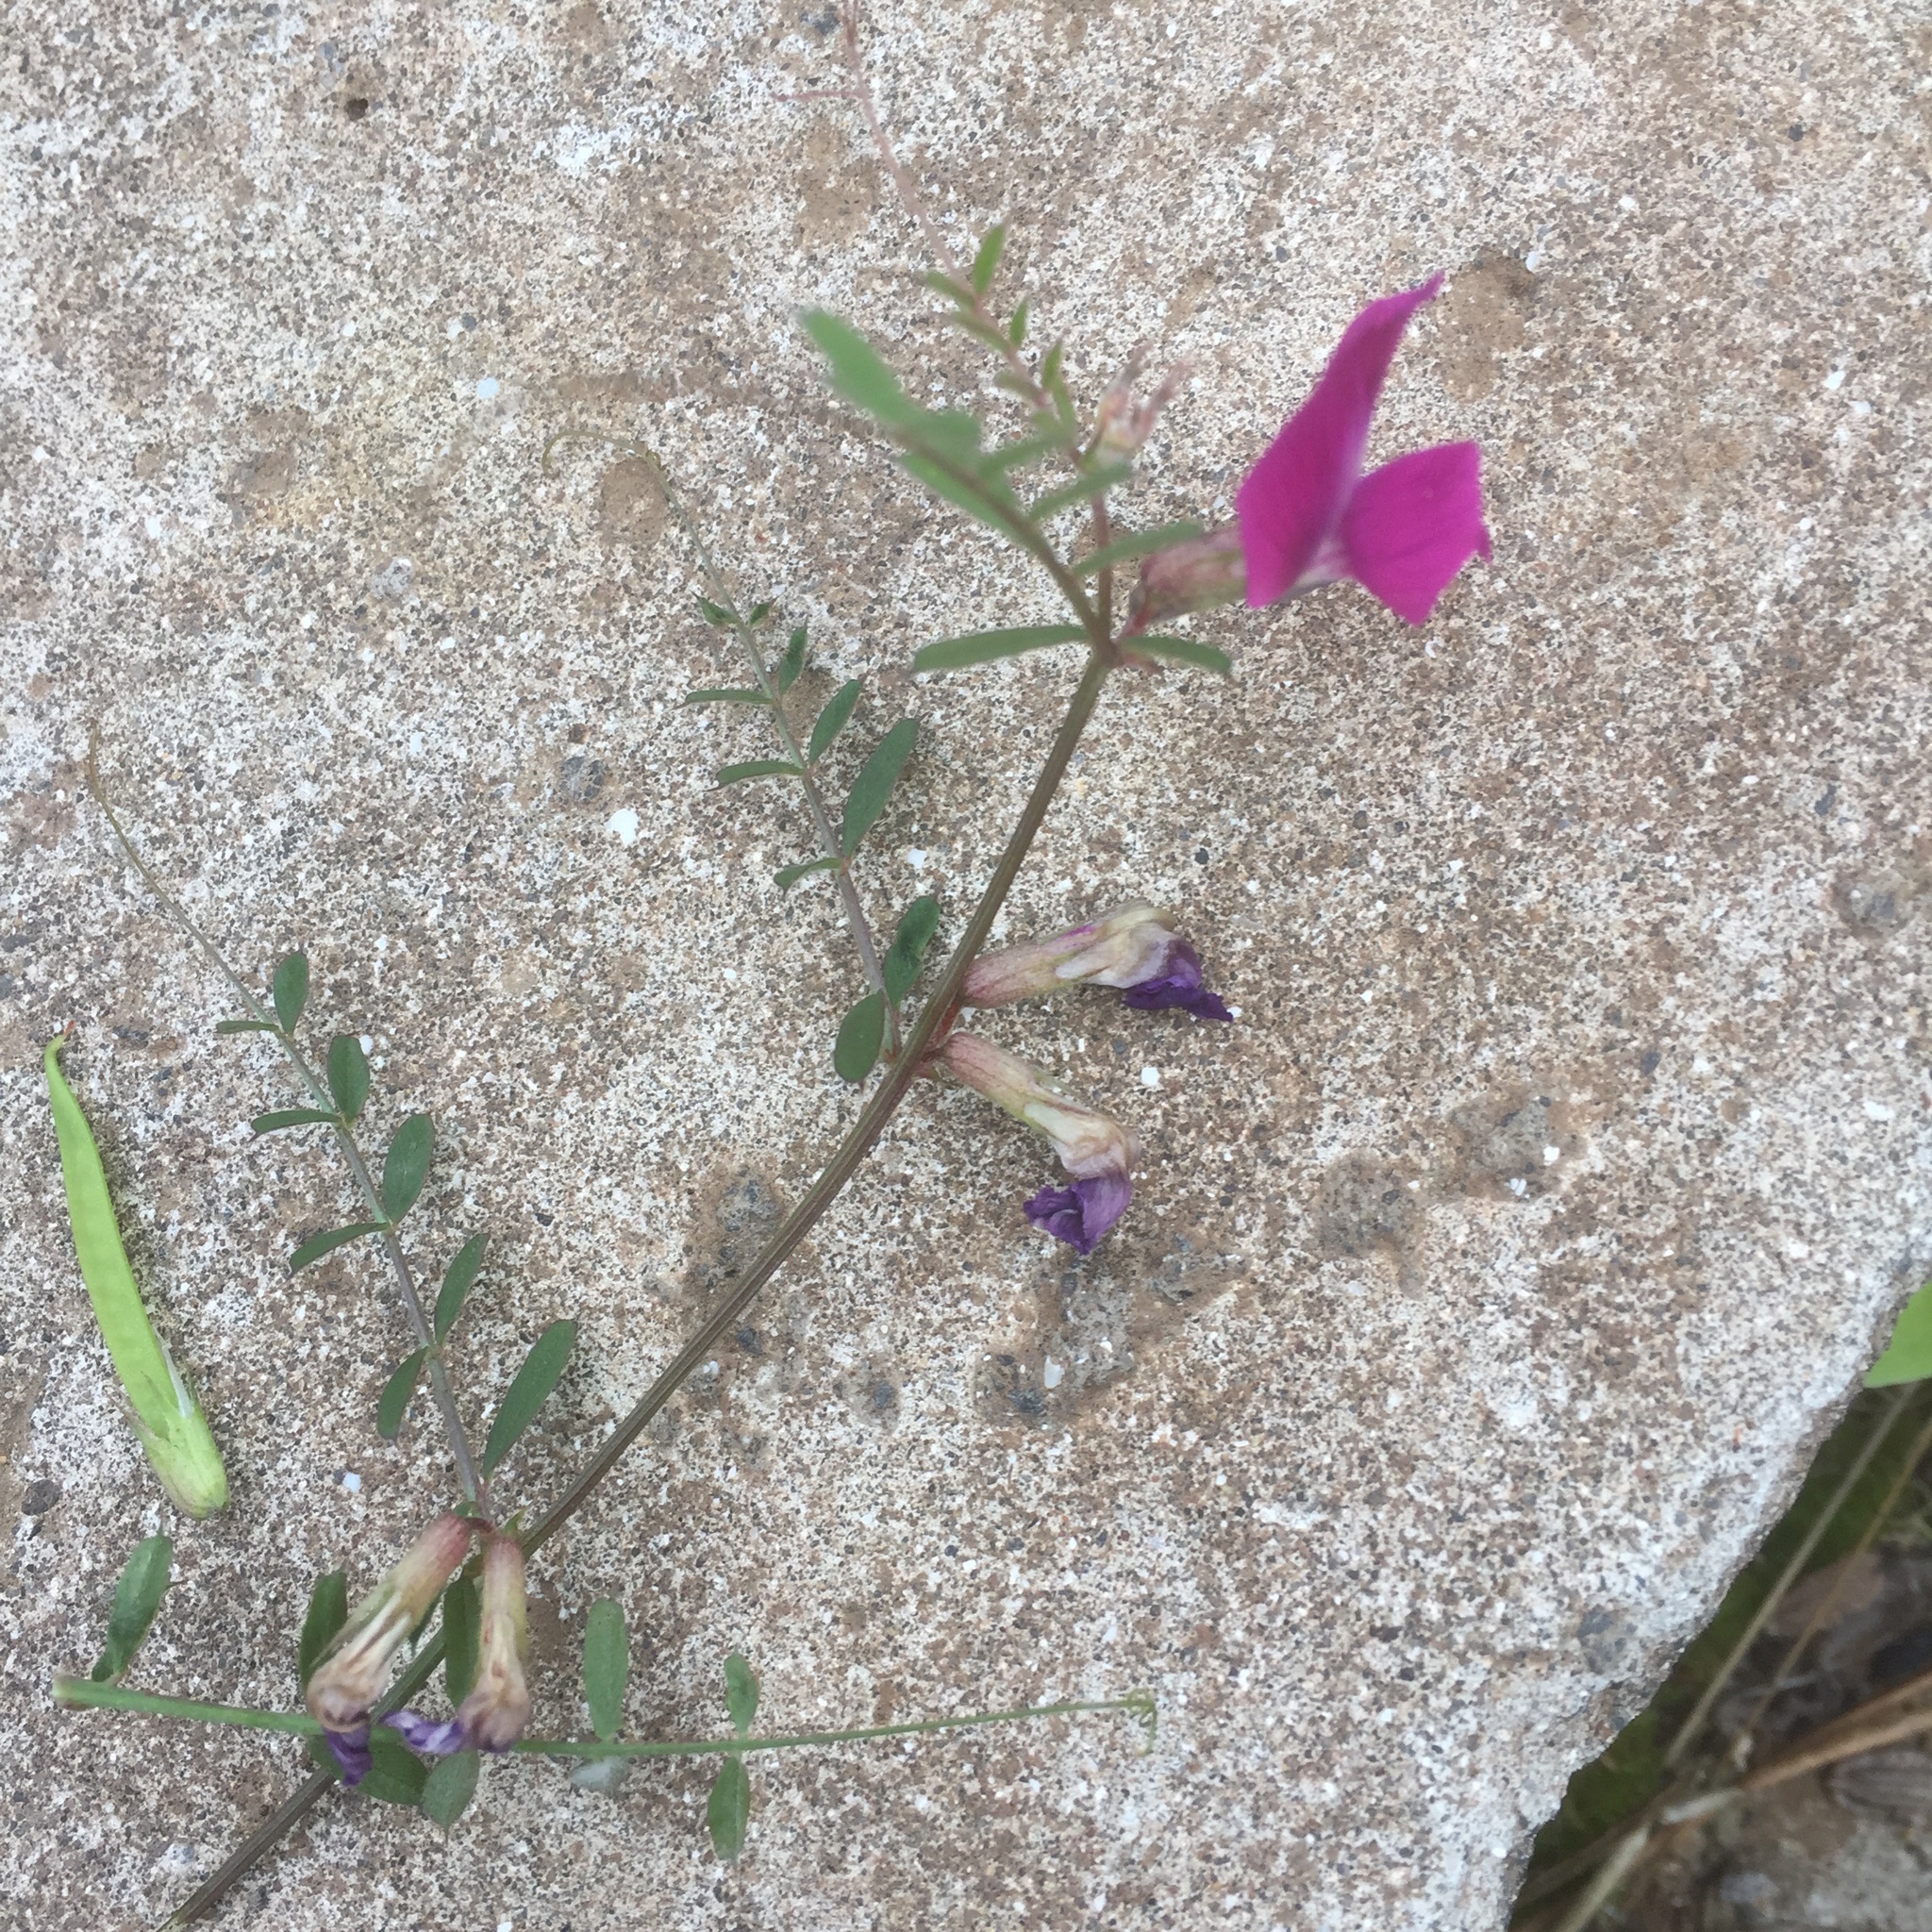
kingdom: Plantae
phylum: Tracheophyta
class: Magnoliopsida
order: Fabales
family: Fabaceae
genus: Vicia
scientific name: Vicia sativa
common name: Garden vetch
